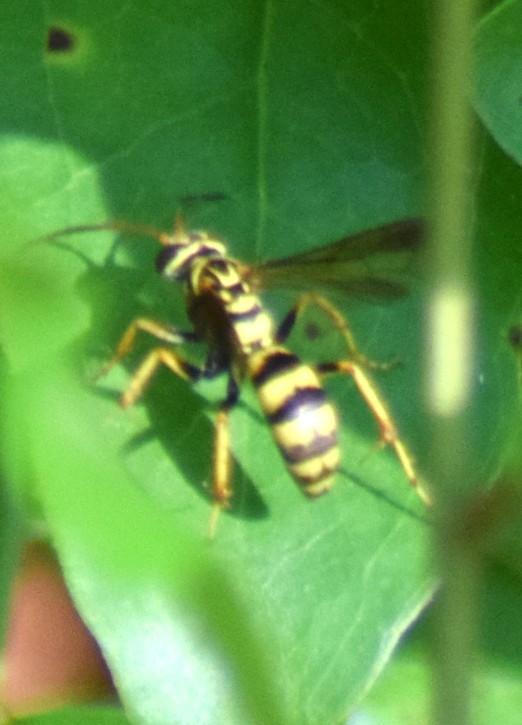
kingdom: Animalia
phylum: Arthropoda
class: Insecta
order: Hymenoptera
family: Pompilidae
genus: Poecilopompilus
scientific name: Poecilopompilus interruptus
